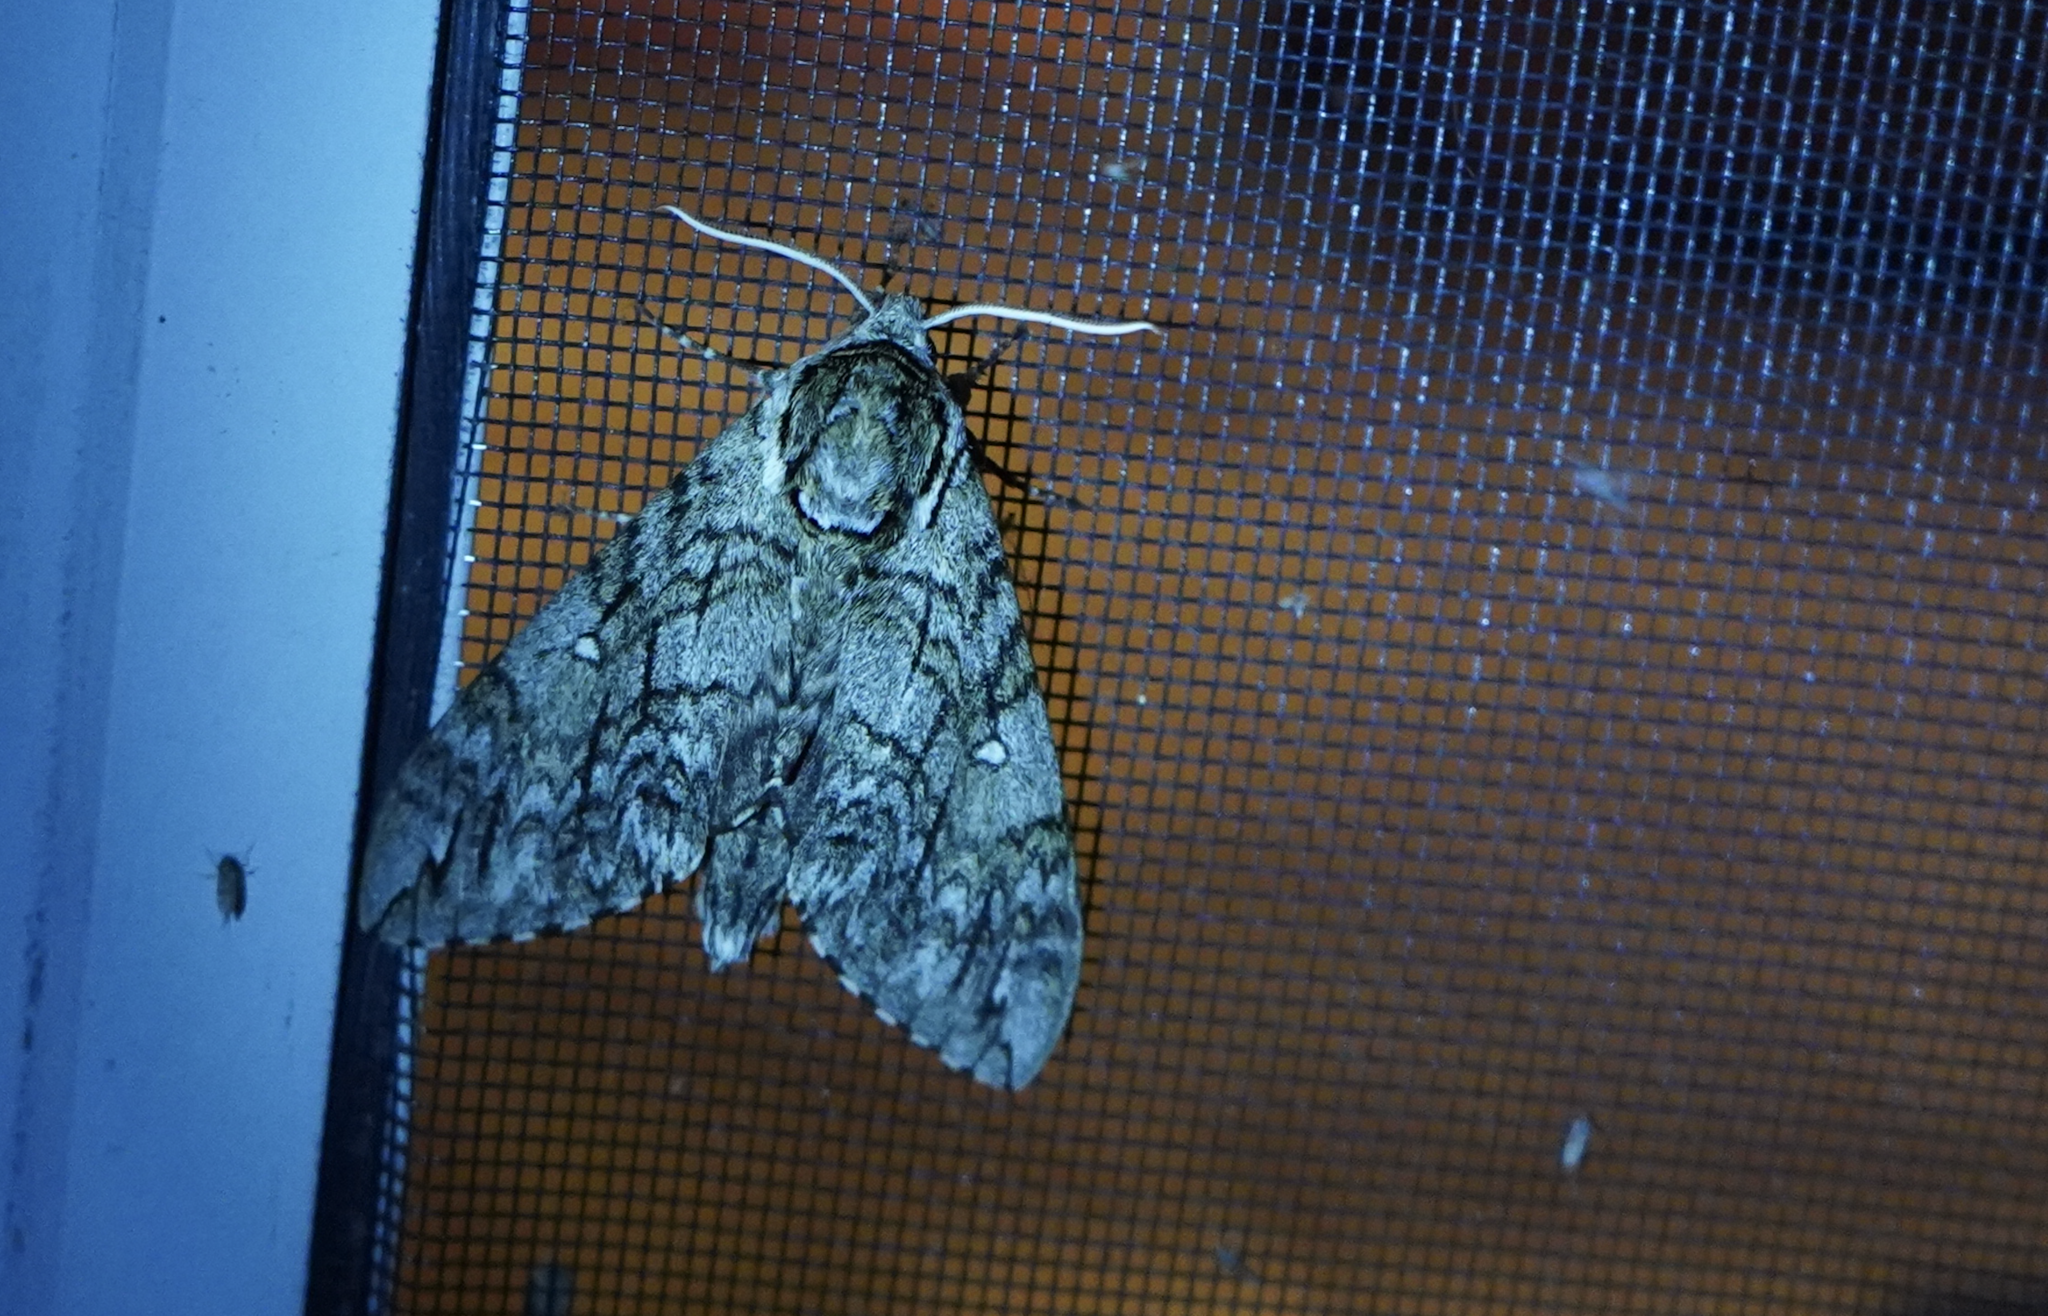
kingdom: Animalia
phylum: Arthropoda
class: Insecta
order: Lepidoptera
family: Sphingidae
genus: Ceratomia
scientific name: Ceratomia undulosa
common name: Waved sphinx
